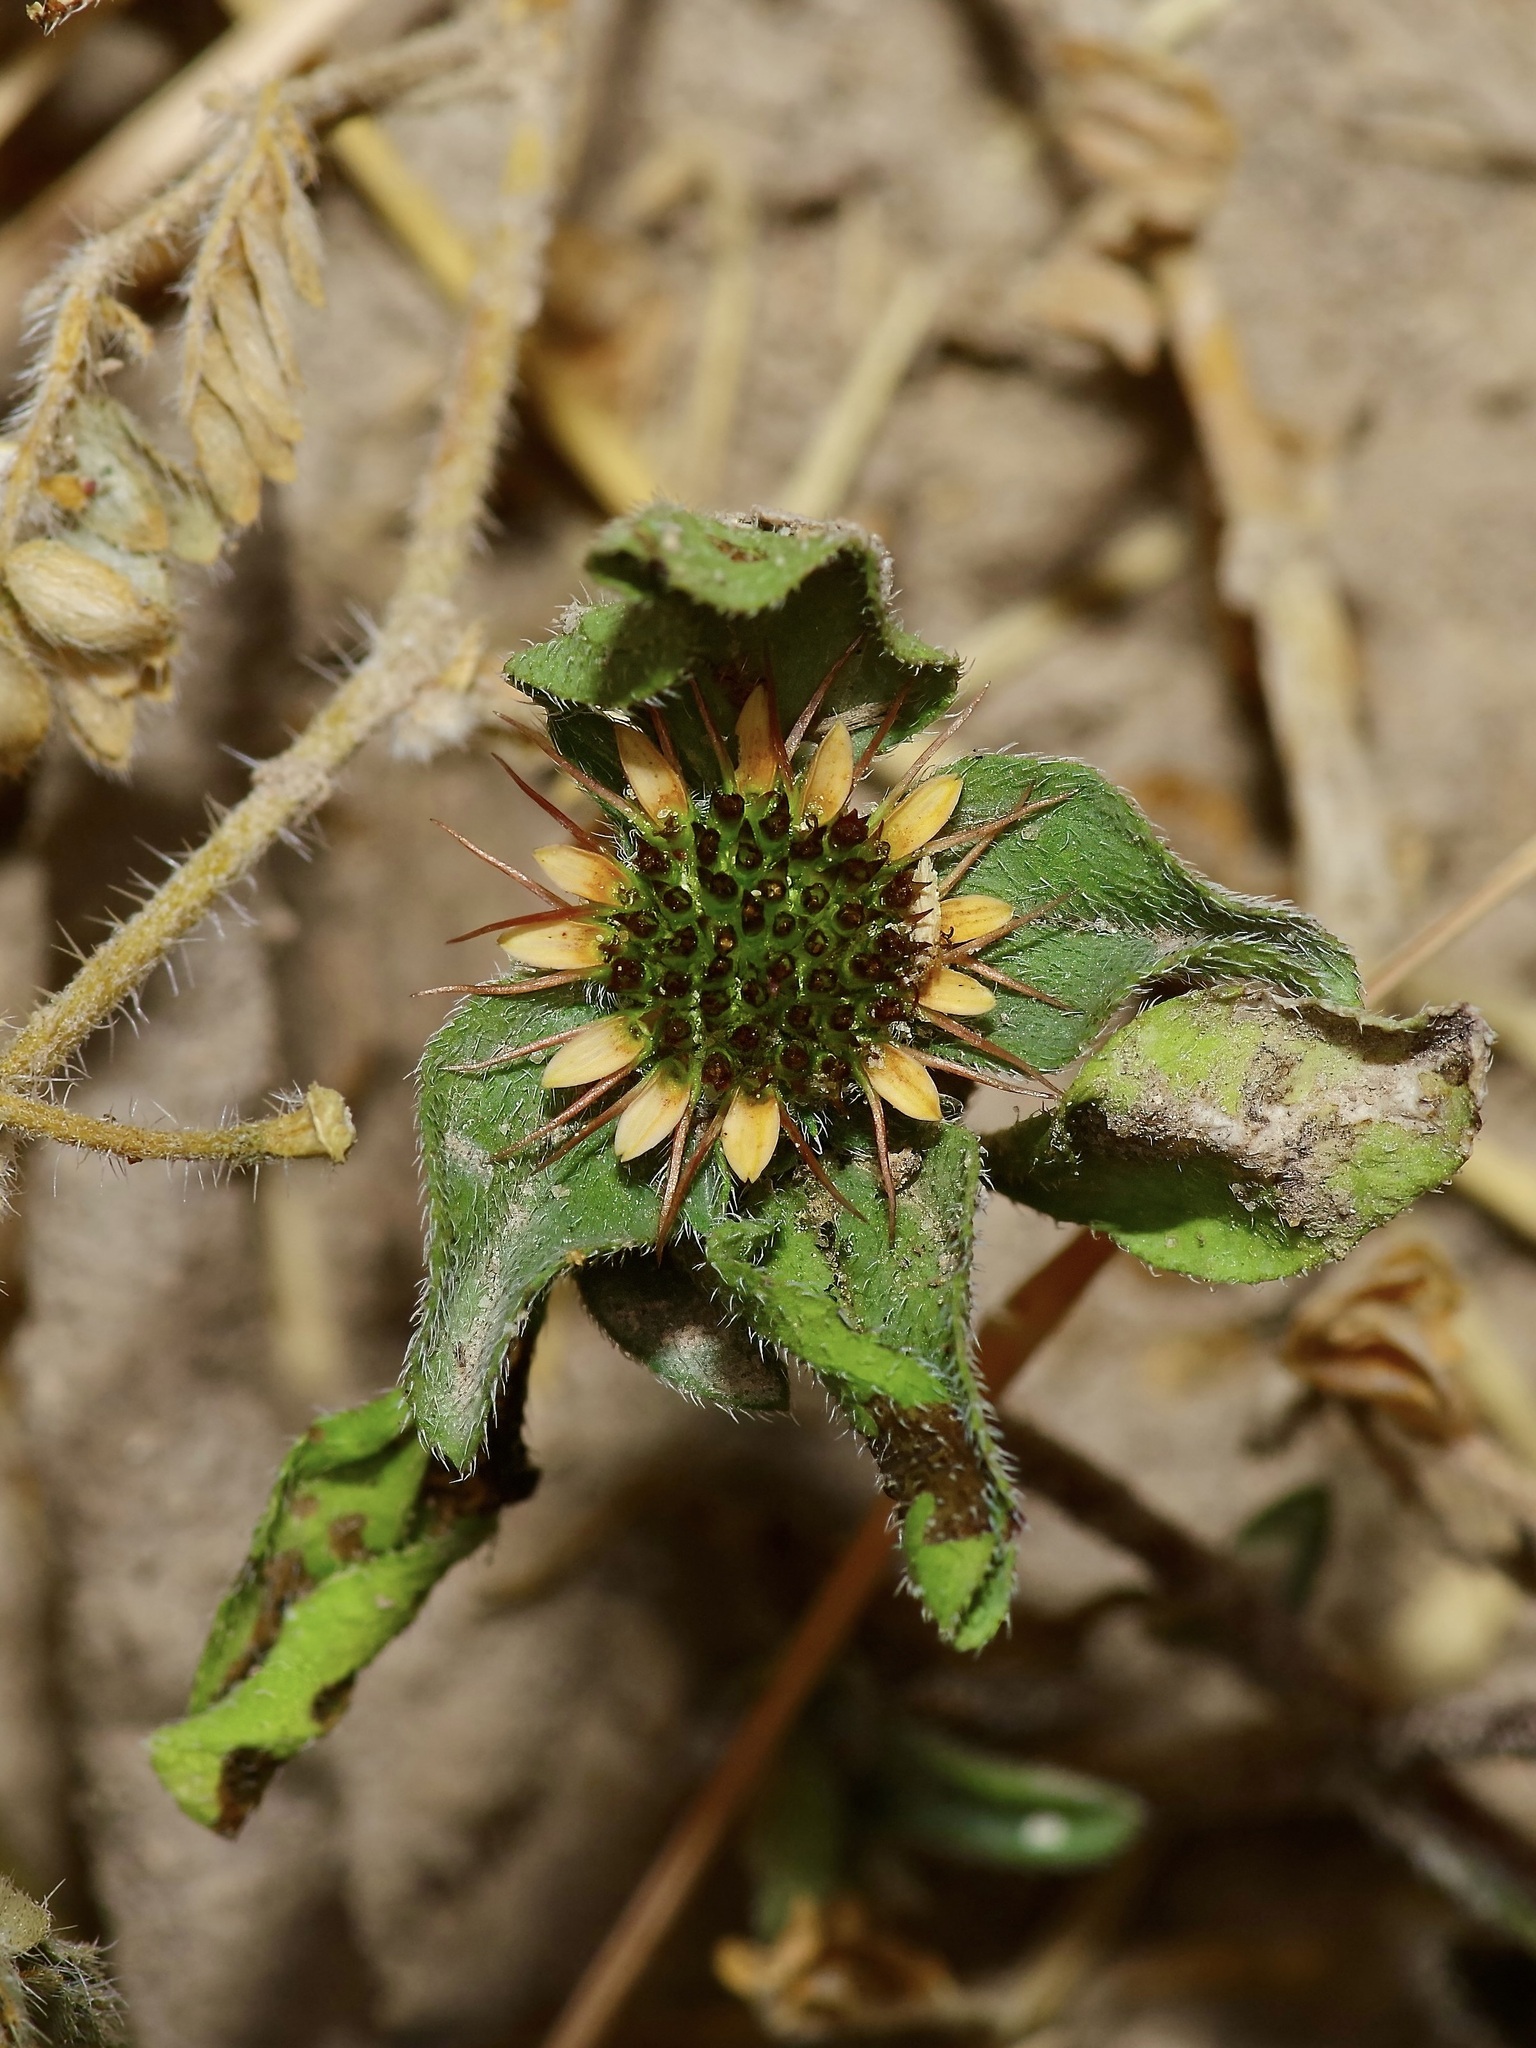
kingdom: Plantae
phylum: Tracheophyta
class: Magnoliopsida
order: Asterales
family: Asteraceae
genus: Sanvitalia
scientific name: Sanvitalia ocymoides
